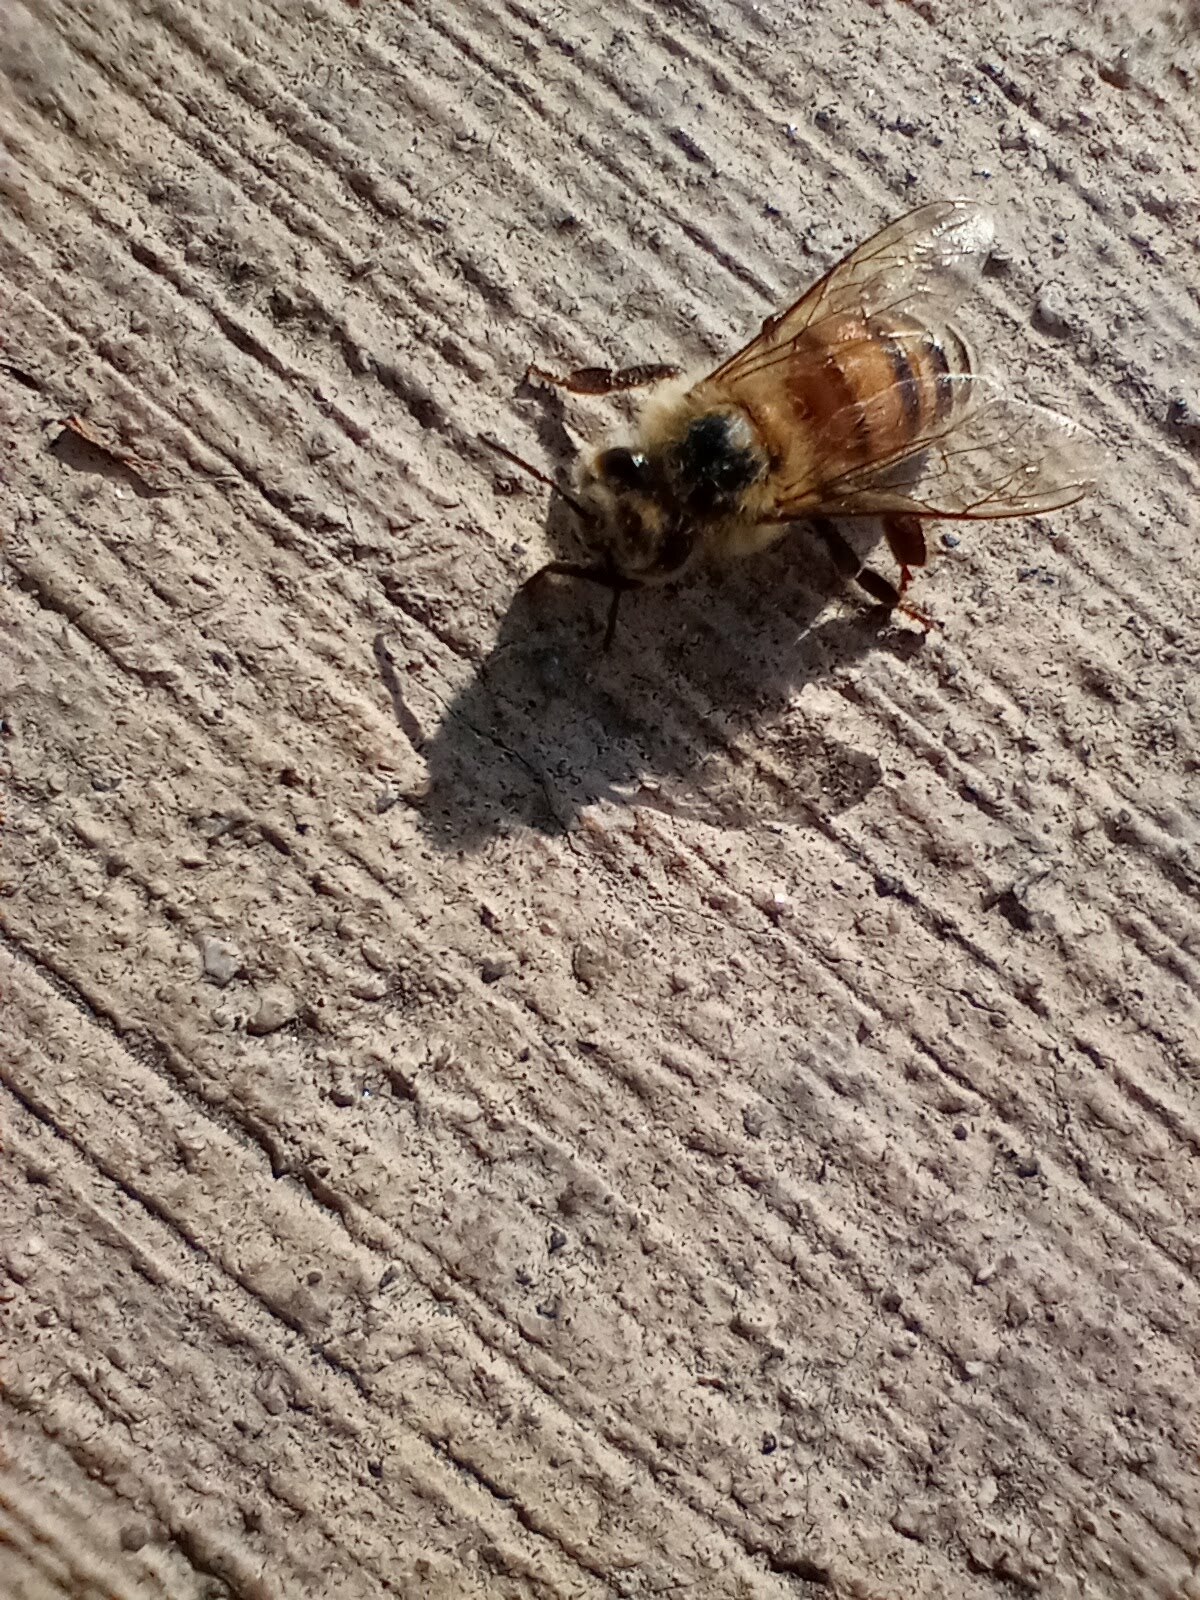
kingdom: Animalia
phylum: Arthropoda
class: Insecta
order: Hymenoptera
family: Apidae
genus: Apis
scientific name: Apis mellifera
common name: Honey bee
